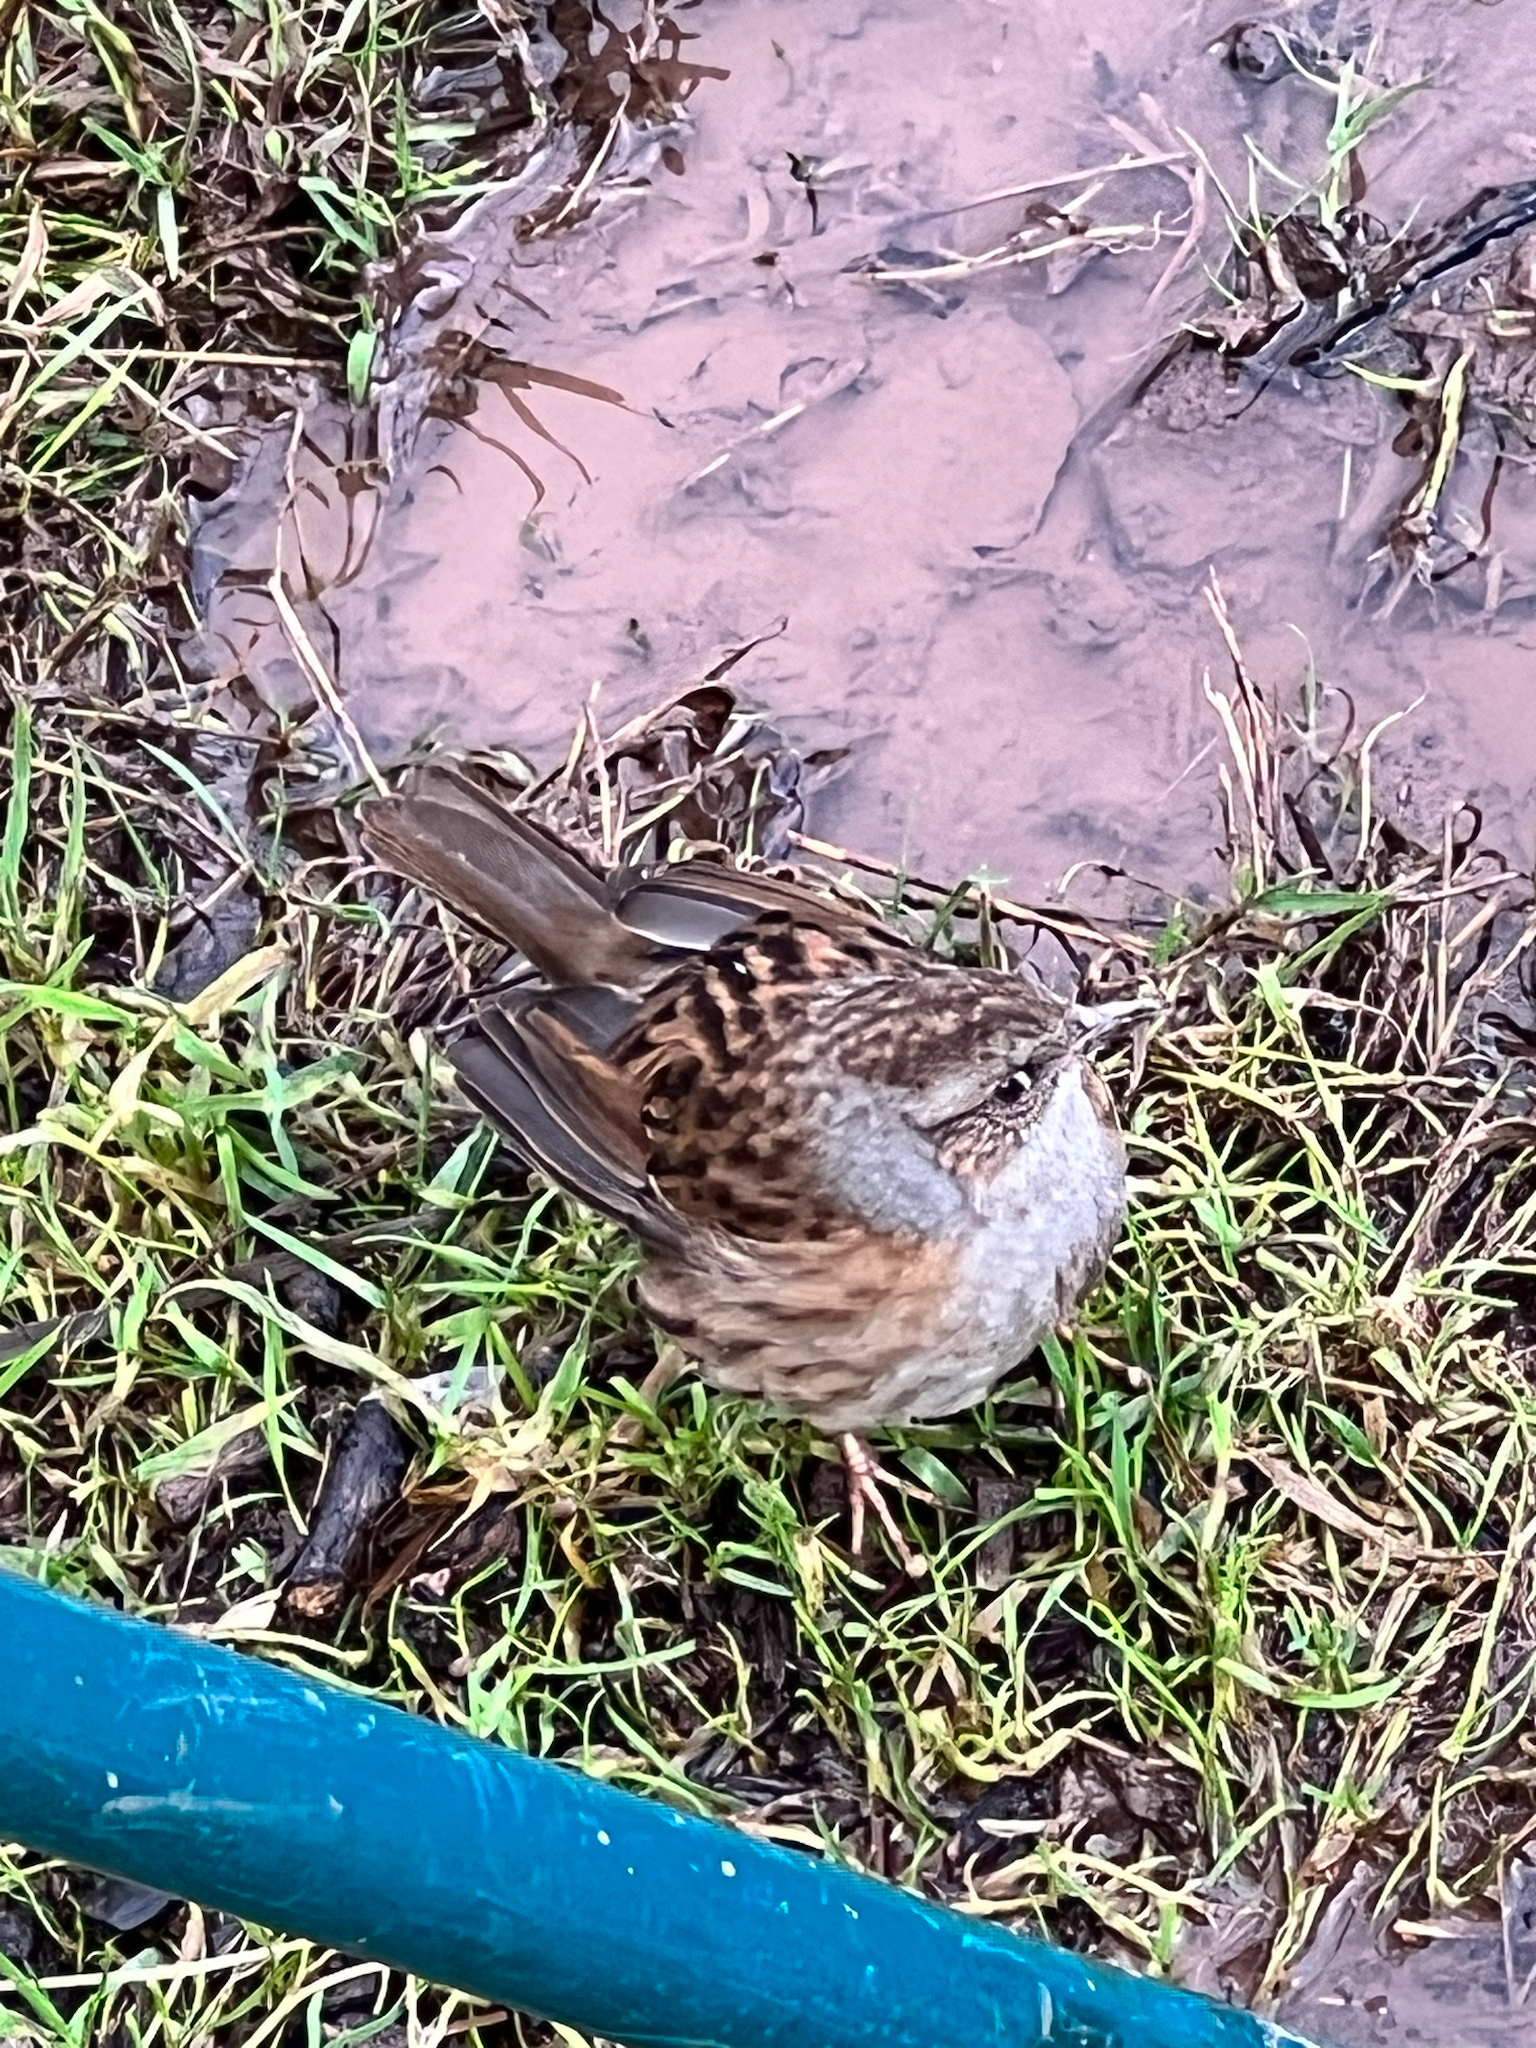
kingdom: Animalia
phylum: Chordata
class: Aves
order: Passeriformes
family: Prunellidae
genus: Prunella
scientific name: Prunella modularis
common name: Dunnock
